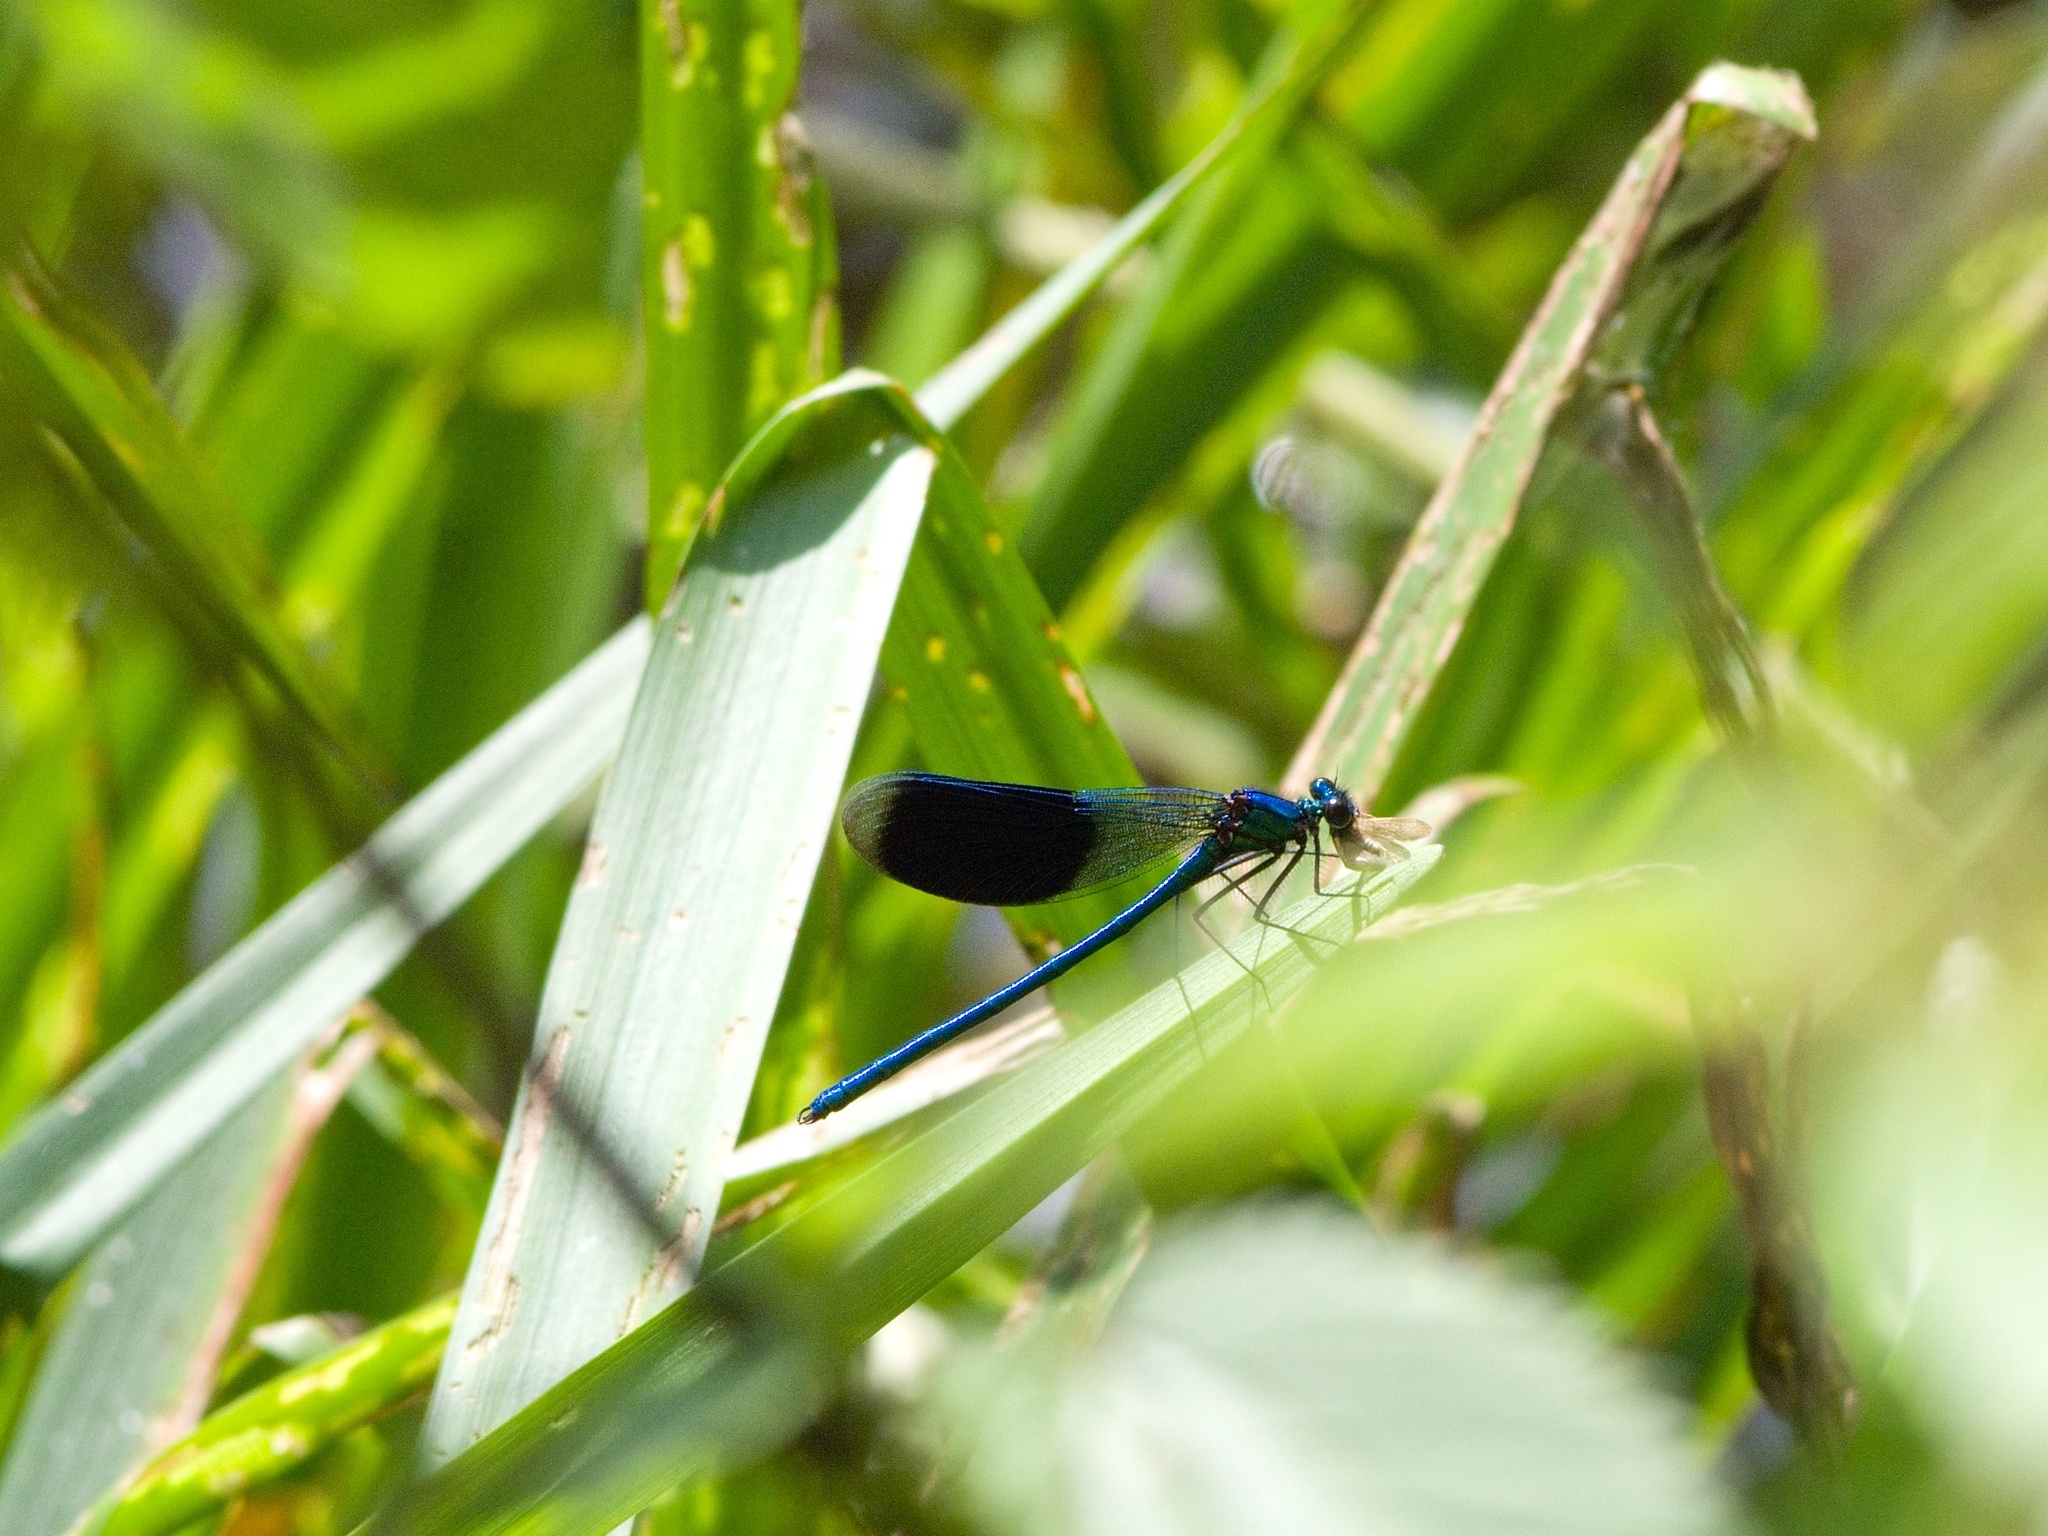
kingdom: Animalia
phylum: Arthropoda
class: Insecta
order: Odonata
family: Calopterygidae
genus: Calopteryx
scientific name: Calopteryx splendens
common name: Banded demoiselle
